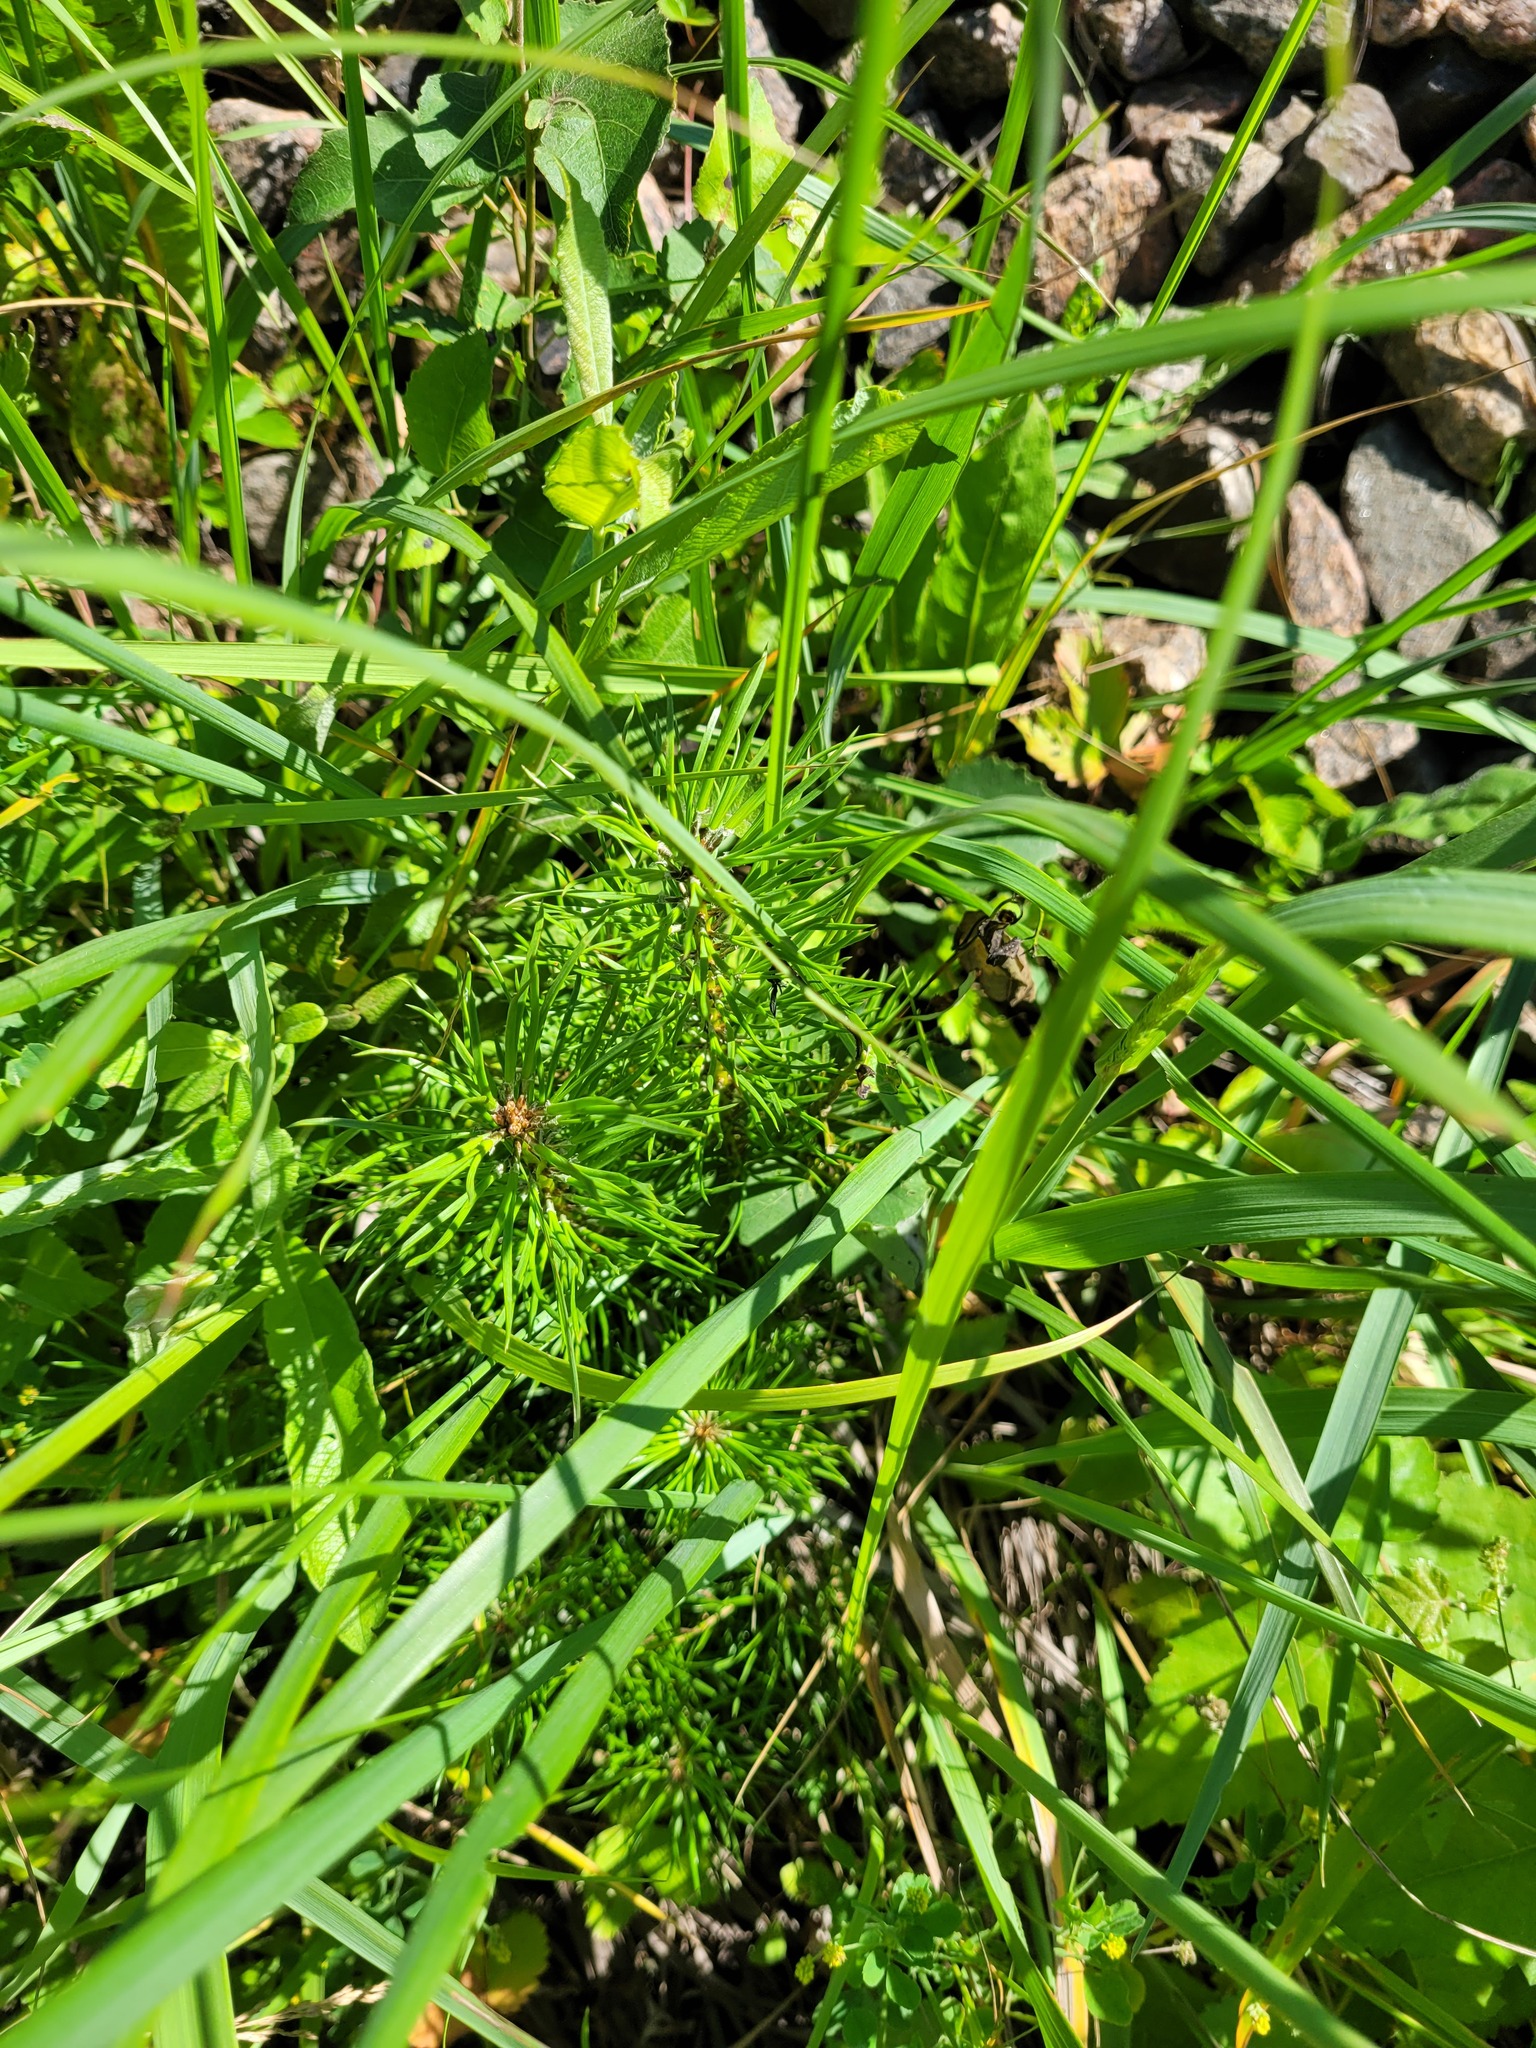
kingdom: Plantae
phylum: Tracheophyta
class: Pinopsida
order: Pinales
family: Pinaceae
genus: Pinus
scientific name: Pinus sylvestris
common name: Scots pine
